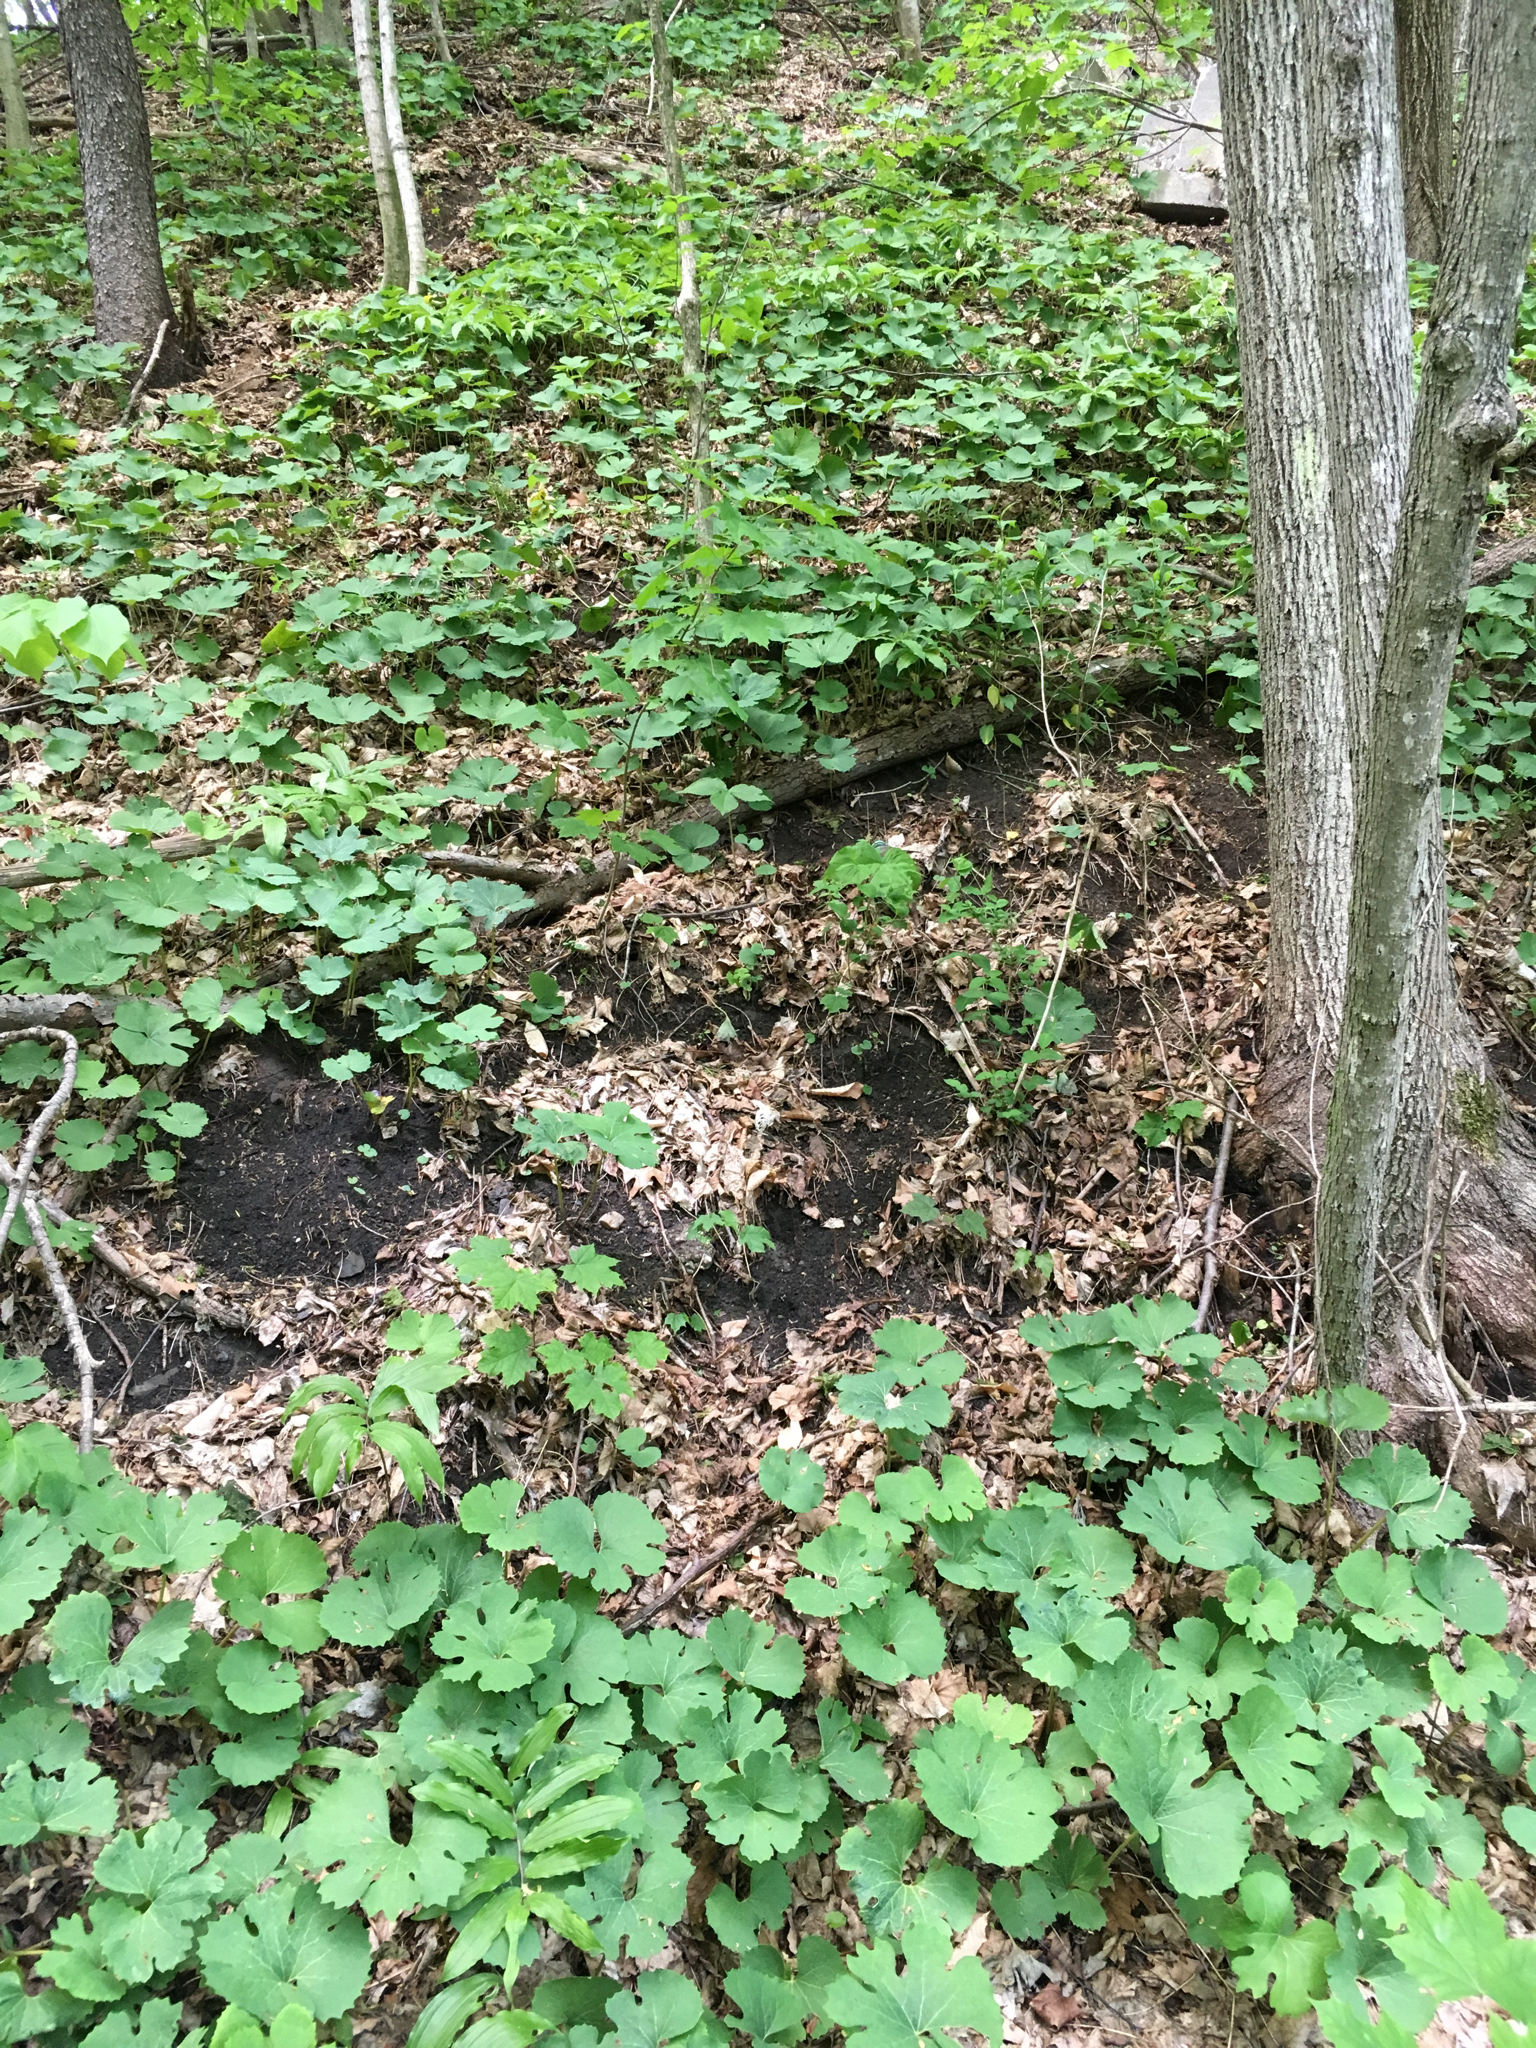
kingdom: Plantae
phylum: Tracheophyta
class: Magnoliopsida
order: Ranunculales
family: Papaveraceae
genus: Sanguinaria
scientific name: Sanguinaria canadensis
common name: Bloodroot
